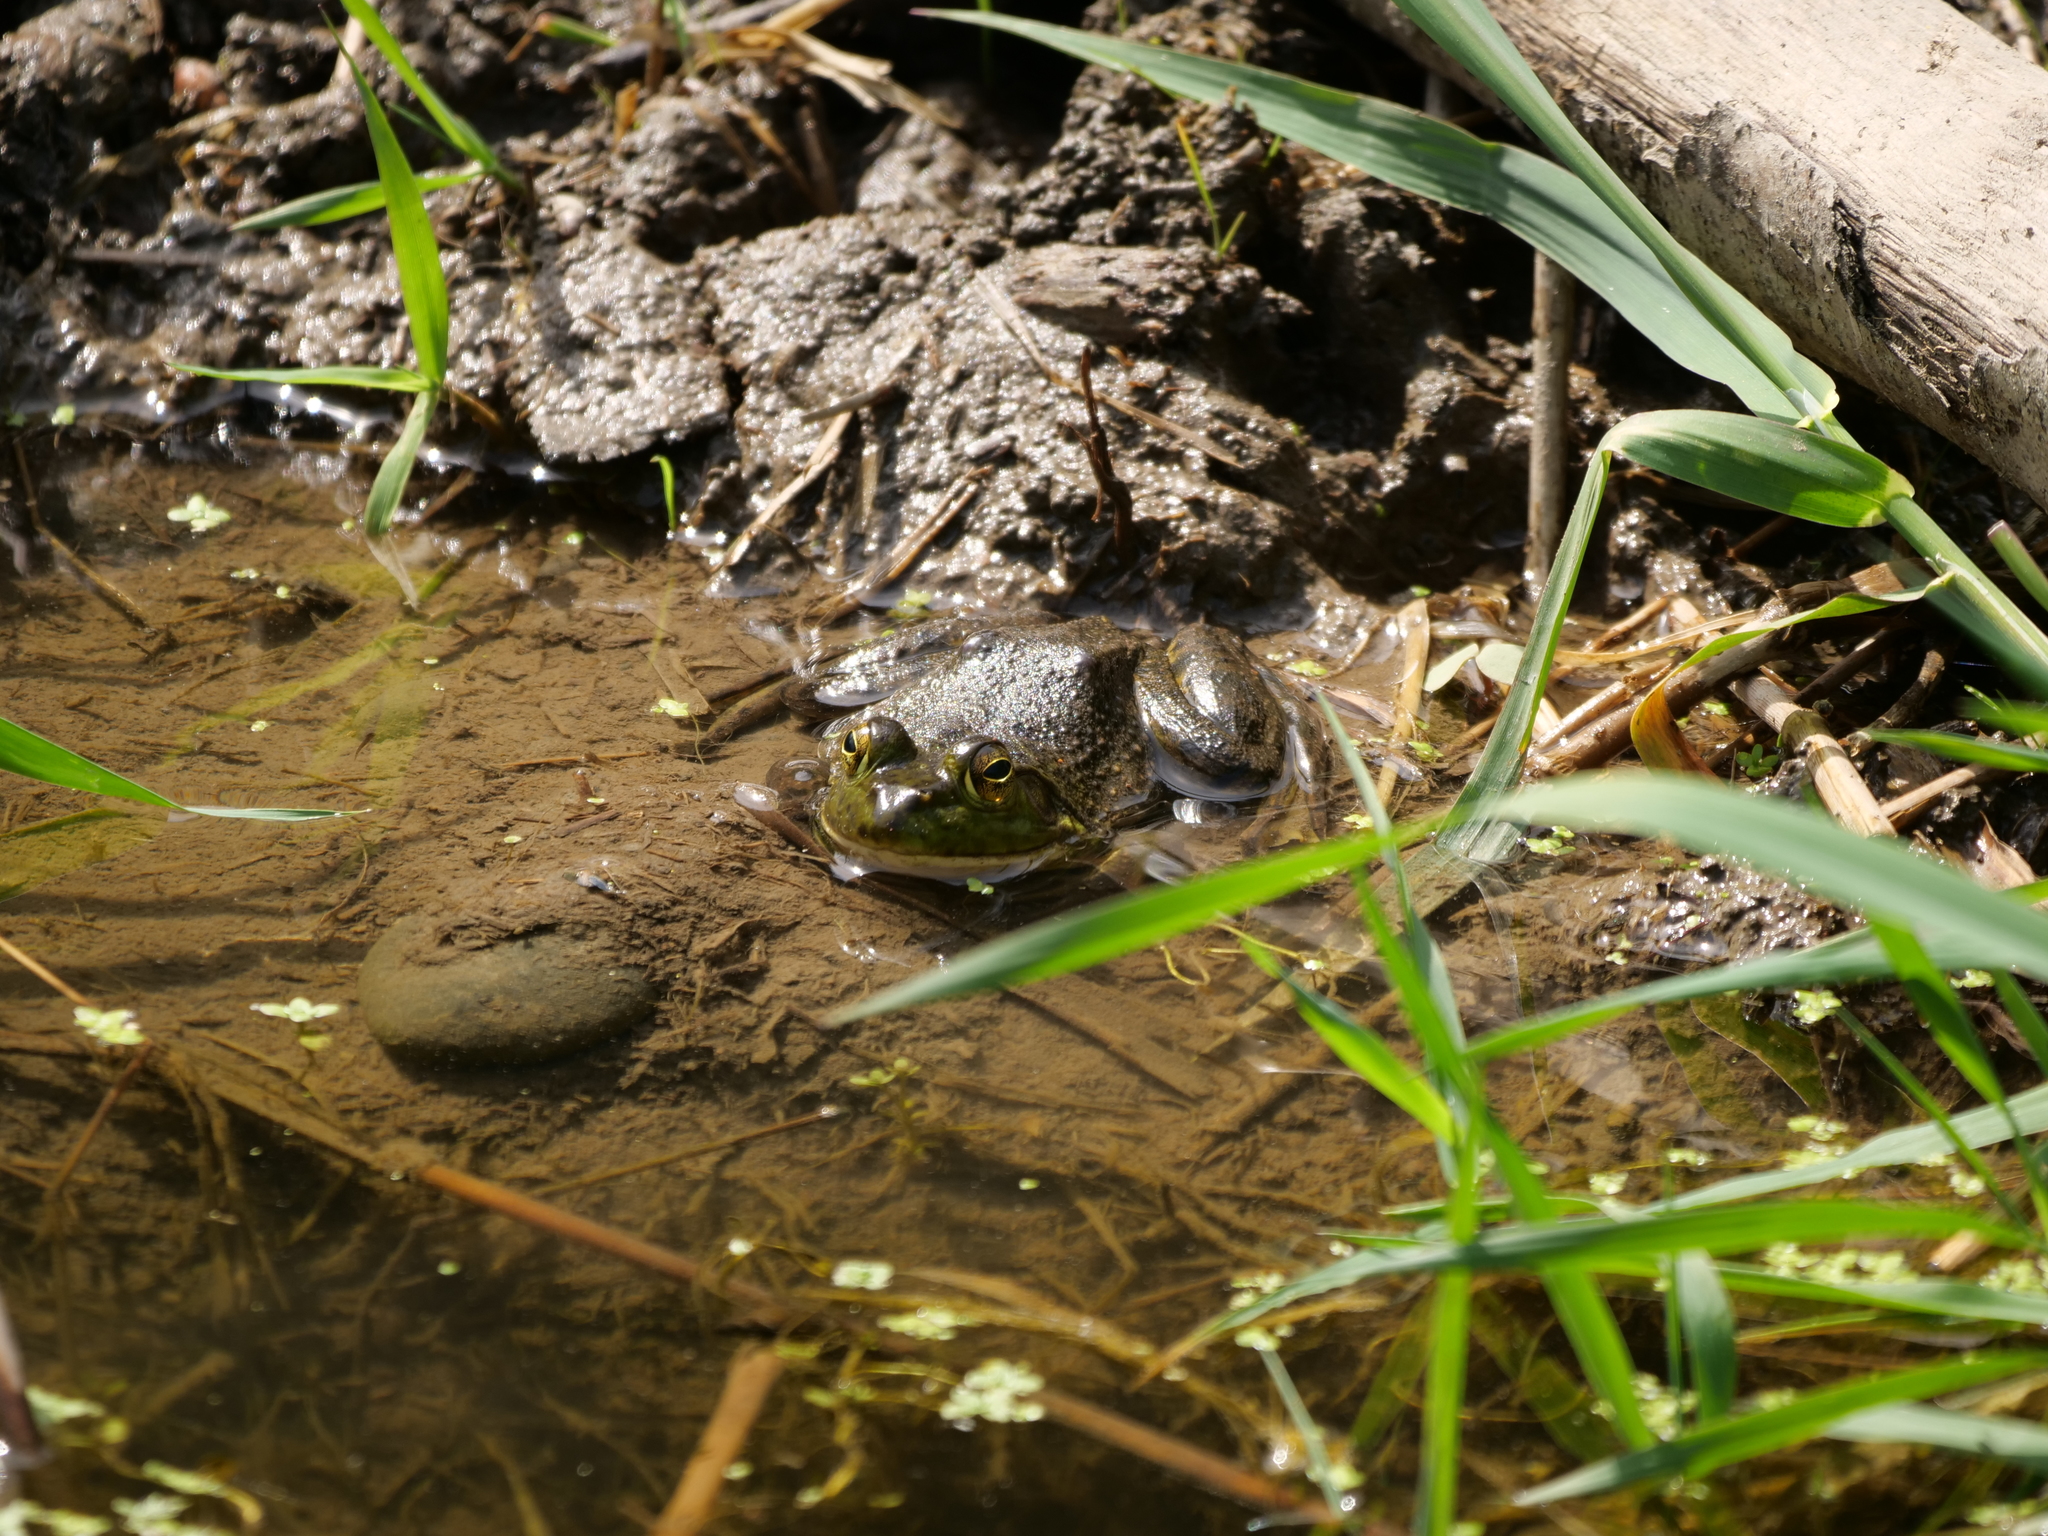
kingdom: Animalia
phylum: Chordata
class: Amphibia
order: Anura
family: Ranidae
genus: Lithobates
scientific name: Lithobates catesbeianus
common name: American bullfrog
